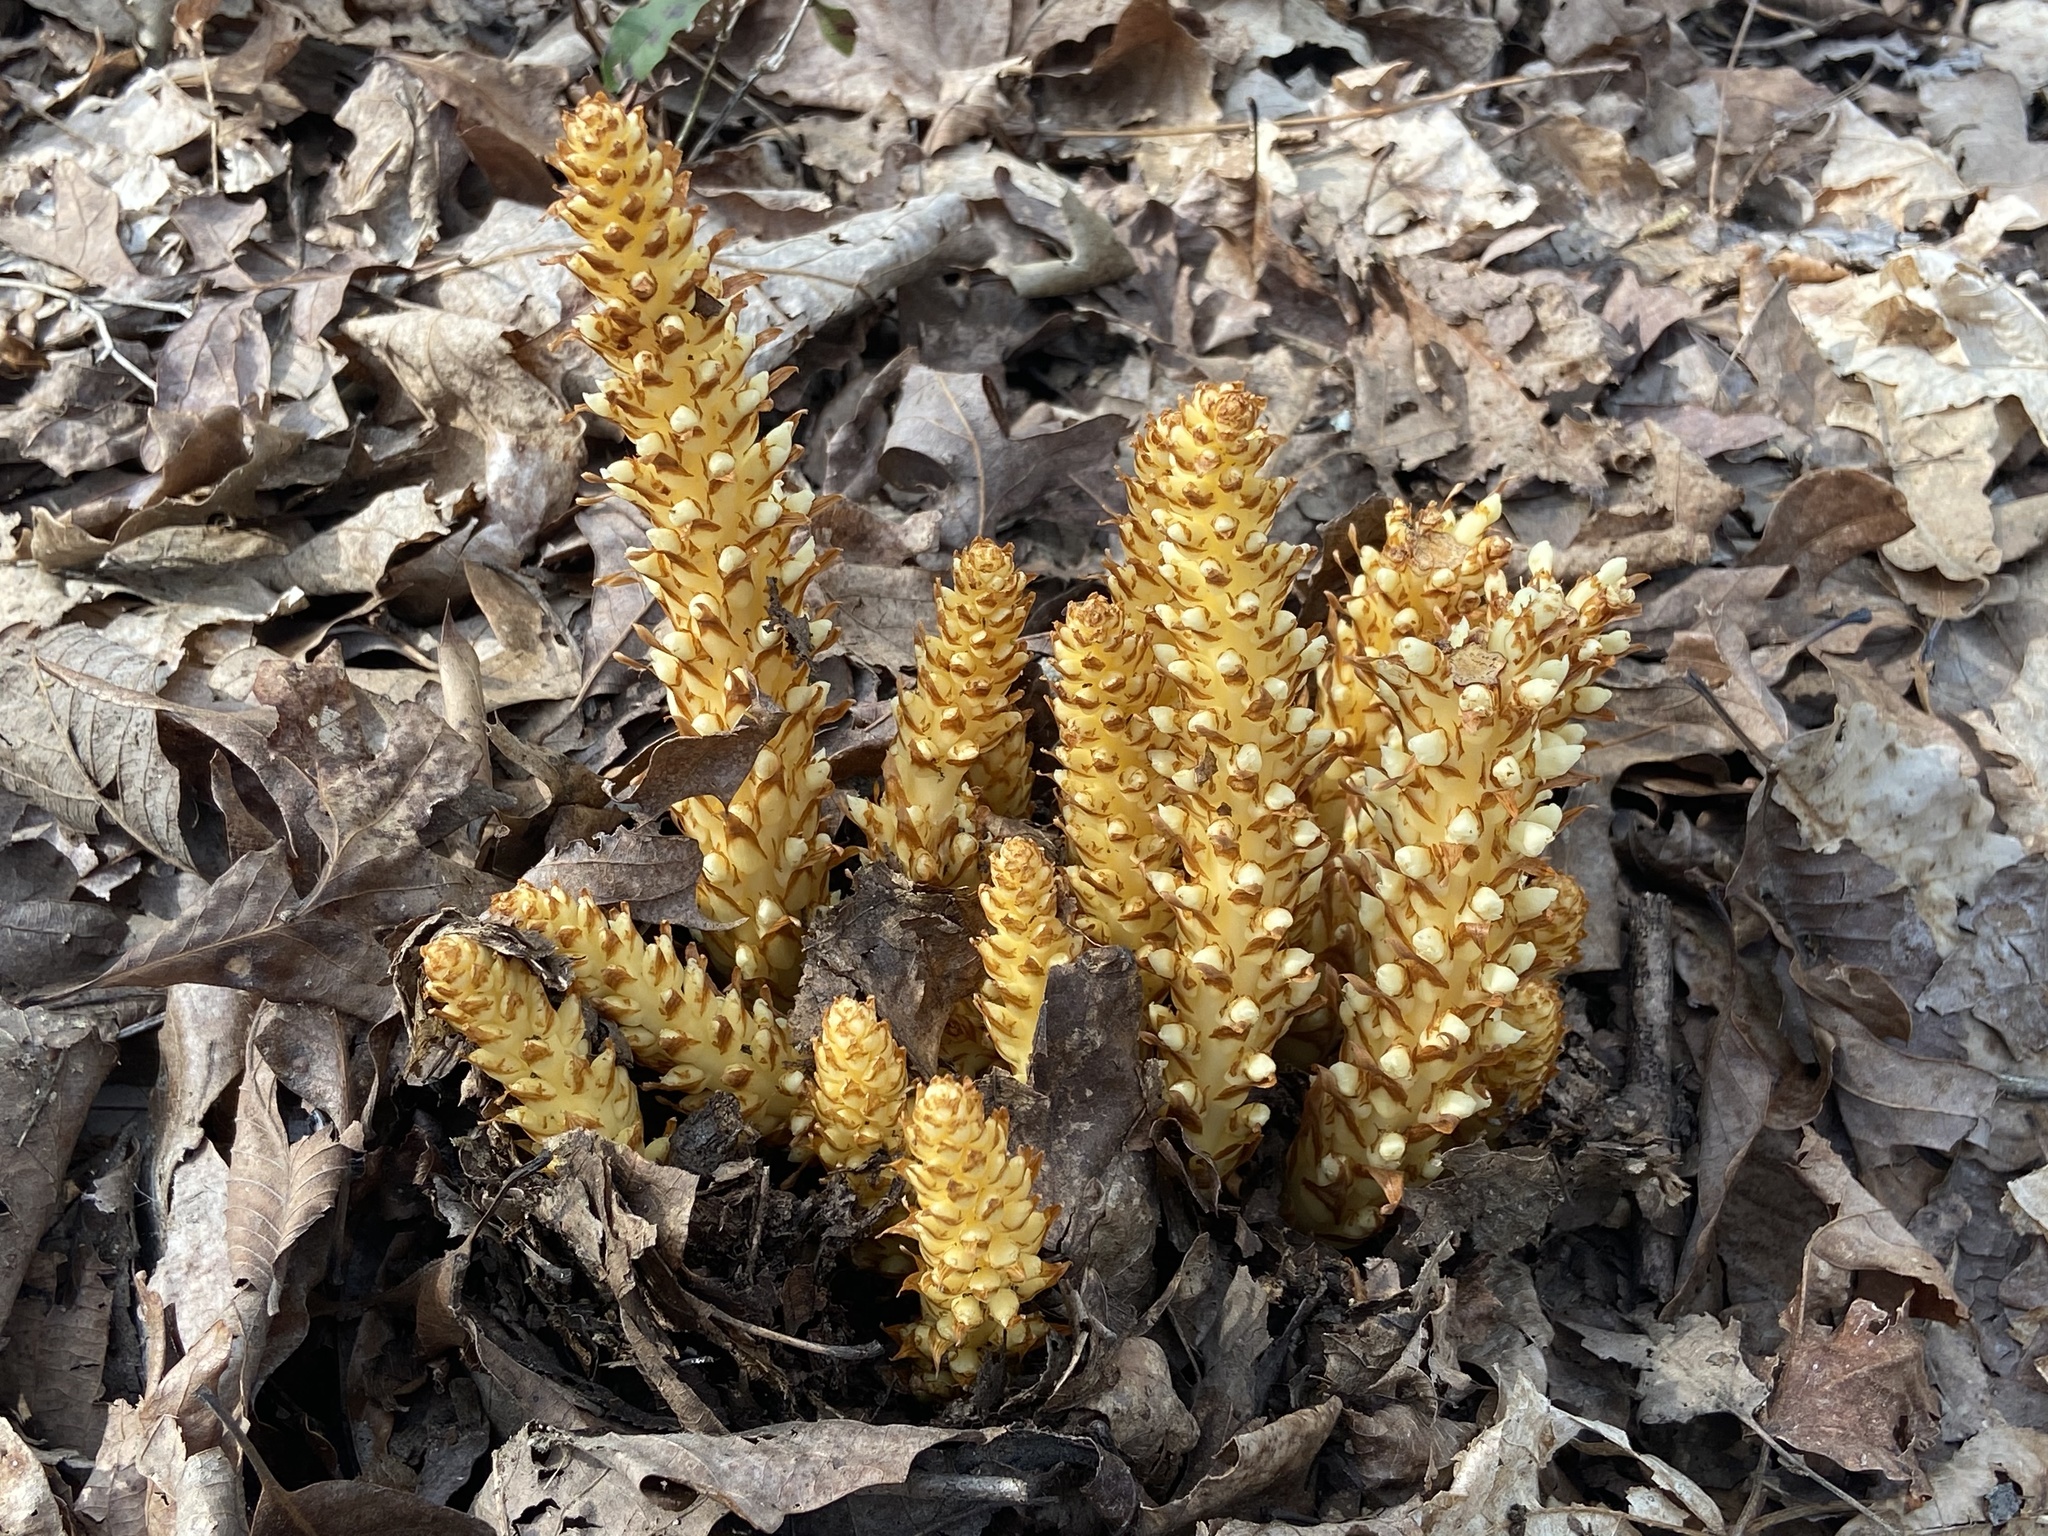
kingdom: Plantae
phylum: Tracheophyta
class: Magnoliopsida
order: Lamiales
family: Orobanchaceae
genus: Conopholis
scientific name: Conopholis americana
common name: American cancer-root
